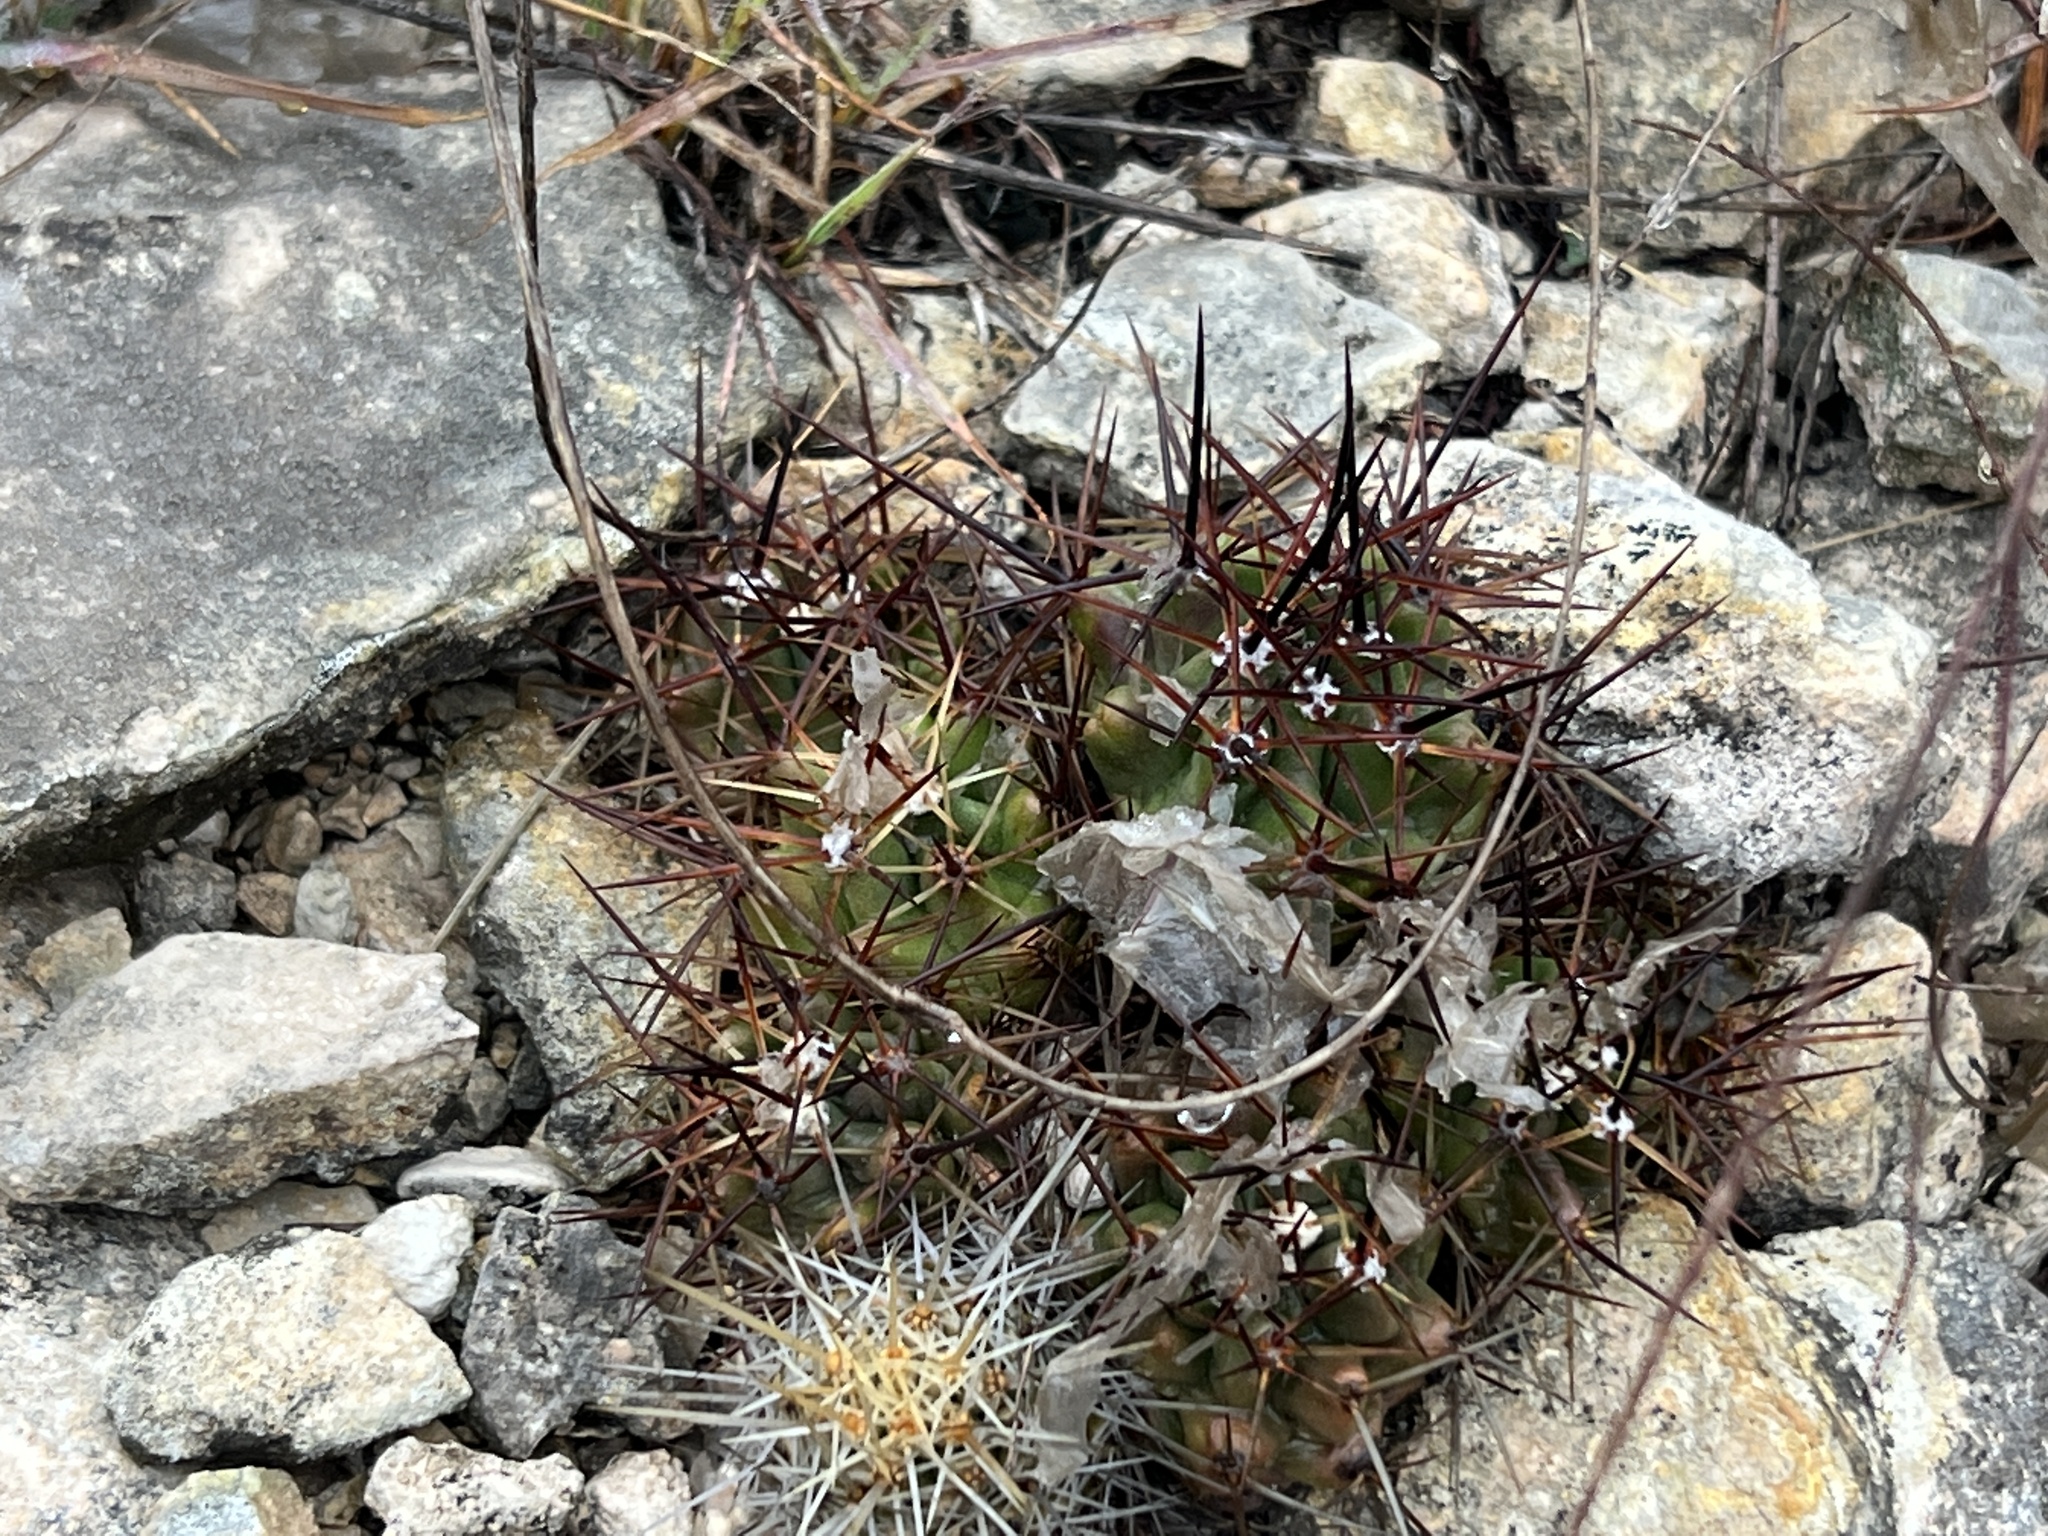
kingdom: Plantae
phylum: Tracheophyta
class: Magnoliopsida
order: Caryophyllales
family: Cactaceae
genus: Echinocereus
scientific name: Echinocereus coccineus
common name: Scarlet hedgehog cactus
